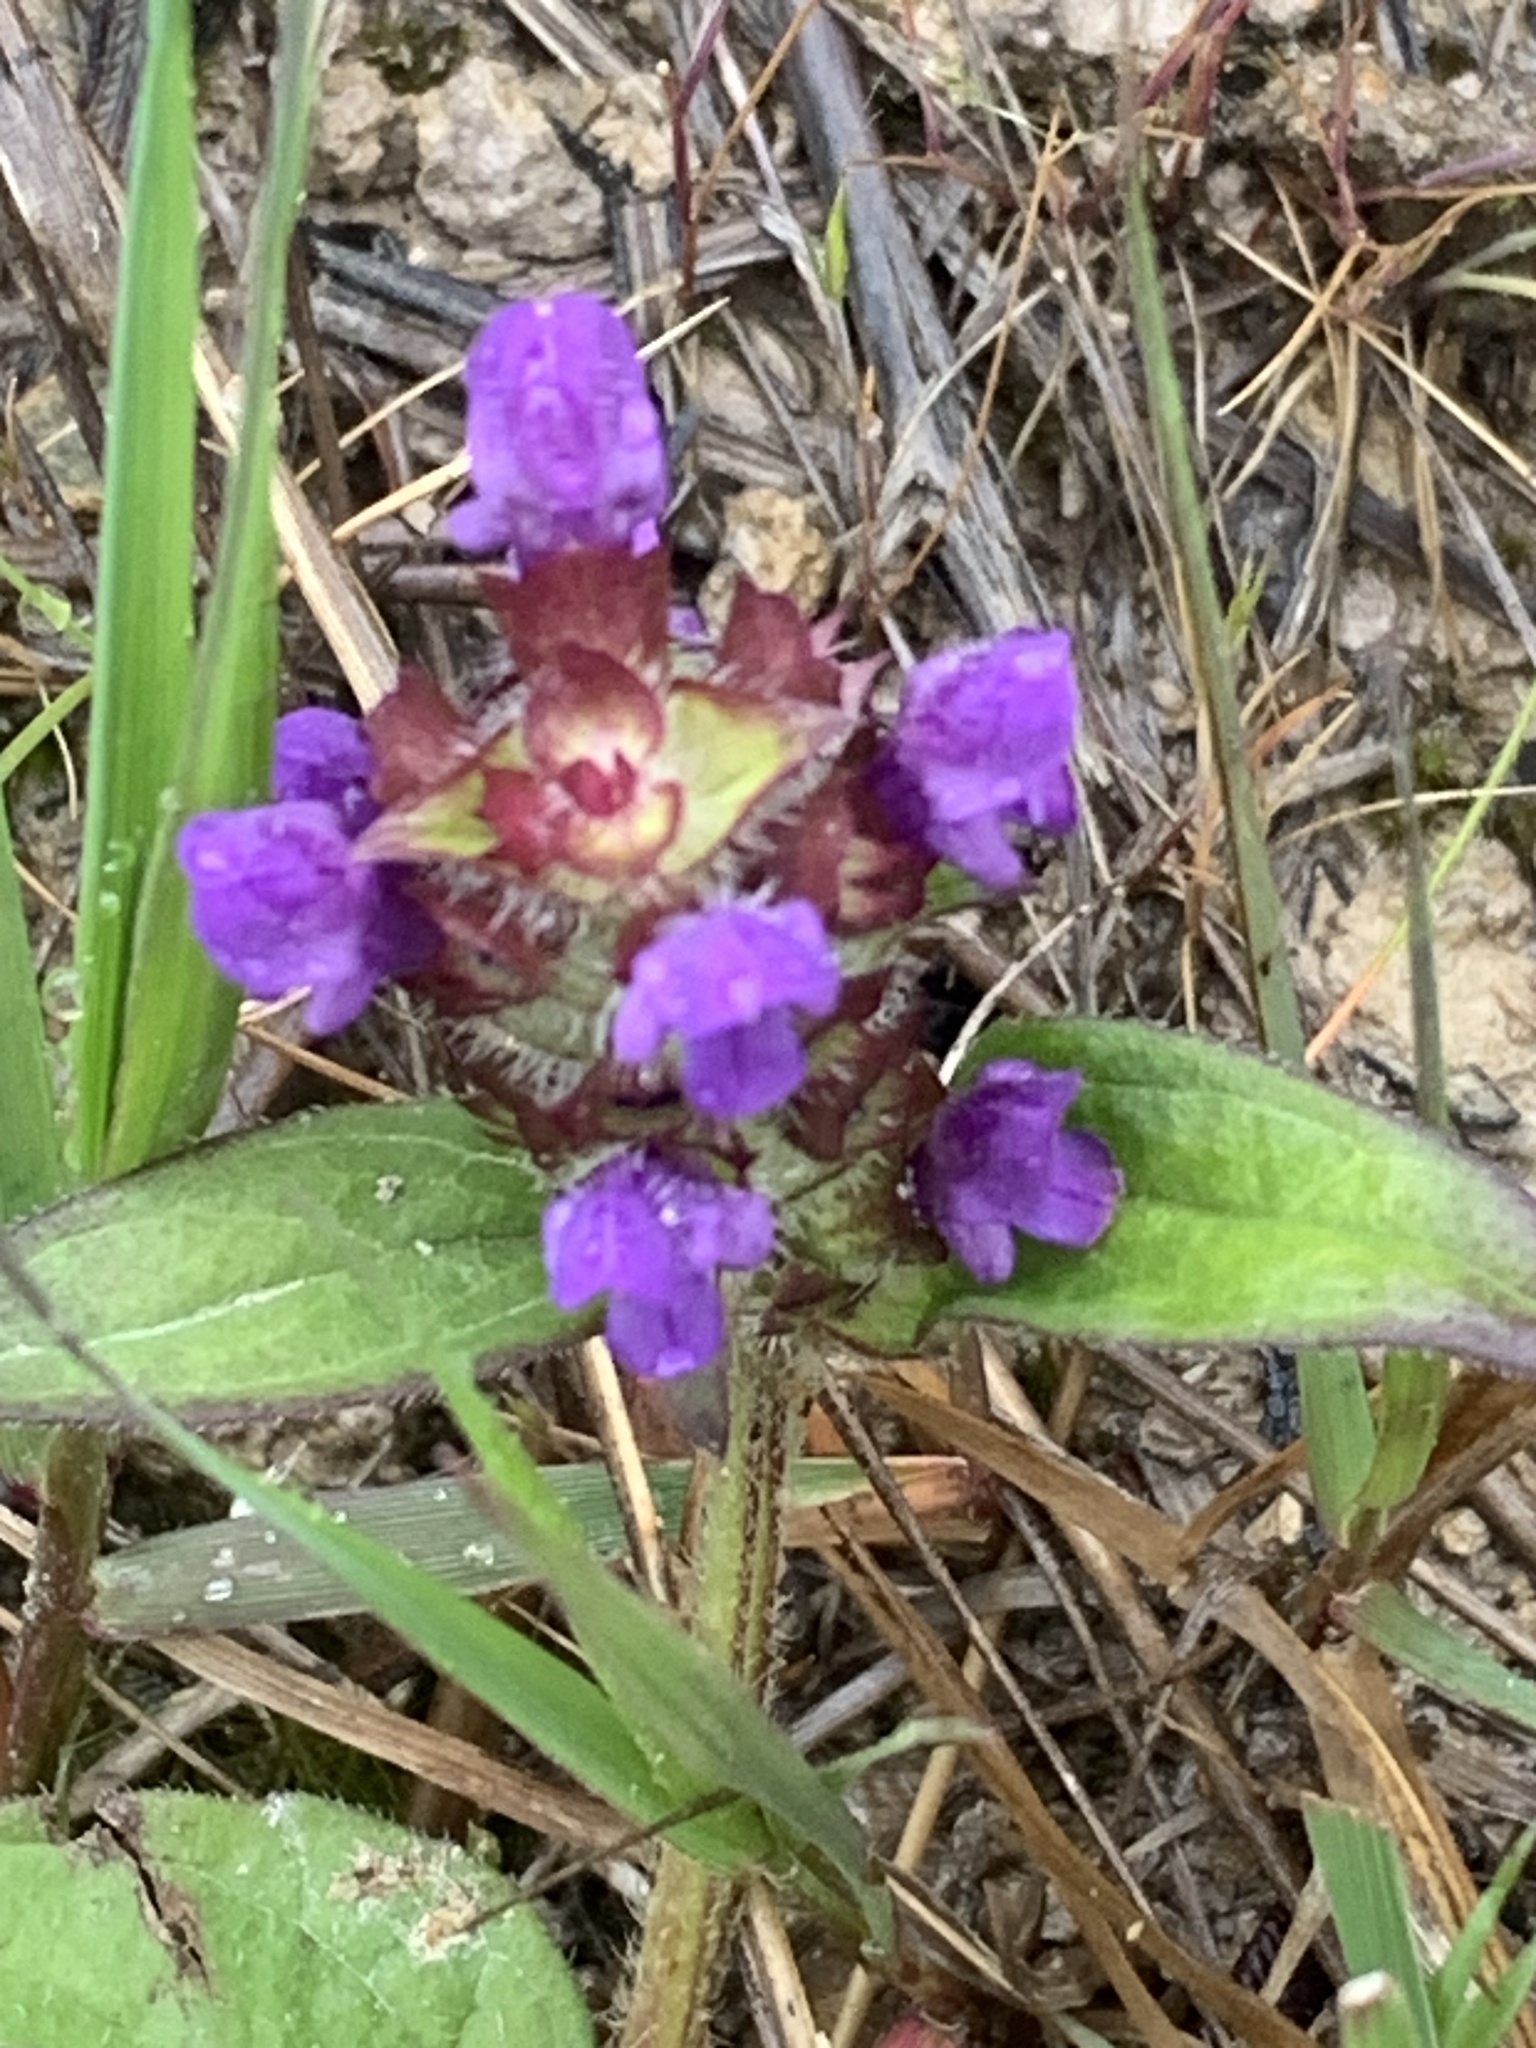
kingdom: Plantae
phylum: Tracheophyta
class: Magnoliopsida
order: Lamiales
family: Lamiaceae
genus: Prunella
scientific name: Prunella vulgaris
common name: Heal-all
